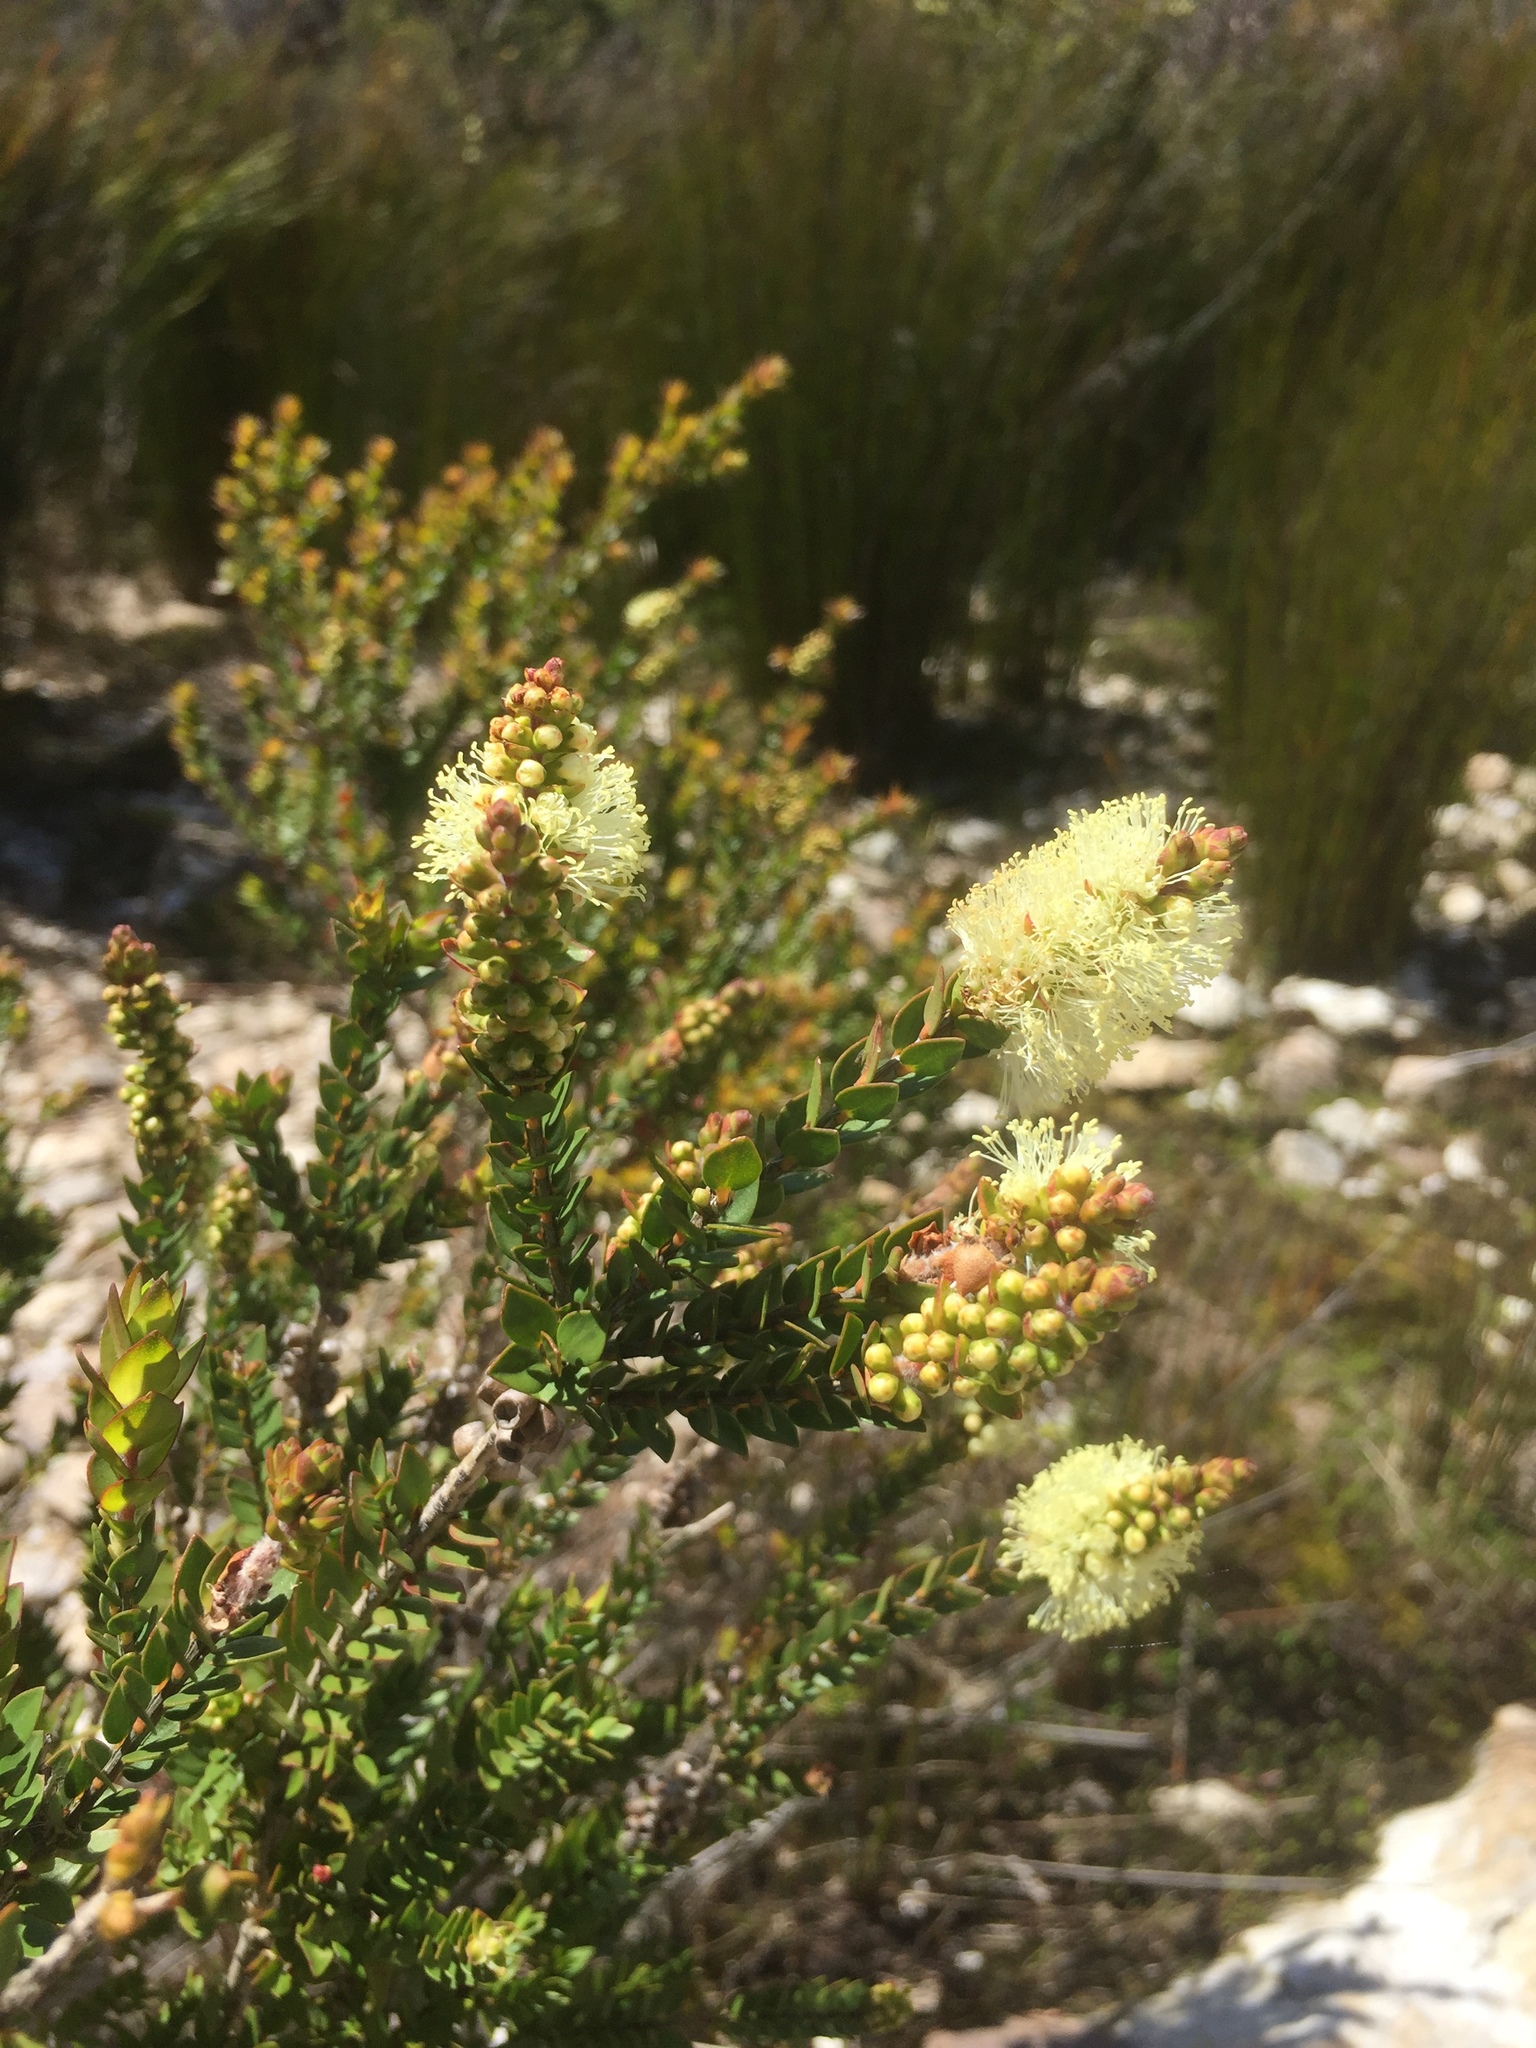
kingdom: Plantae
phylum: Tracheophyta
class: Magnoliopsida
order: Myrtales
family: Myrtaceae
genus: Melaleuca
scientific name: Melaleuca squarrosa
